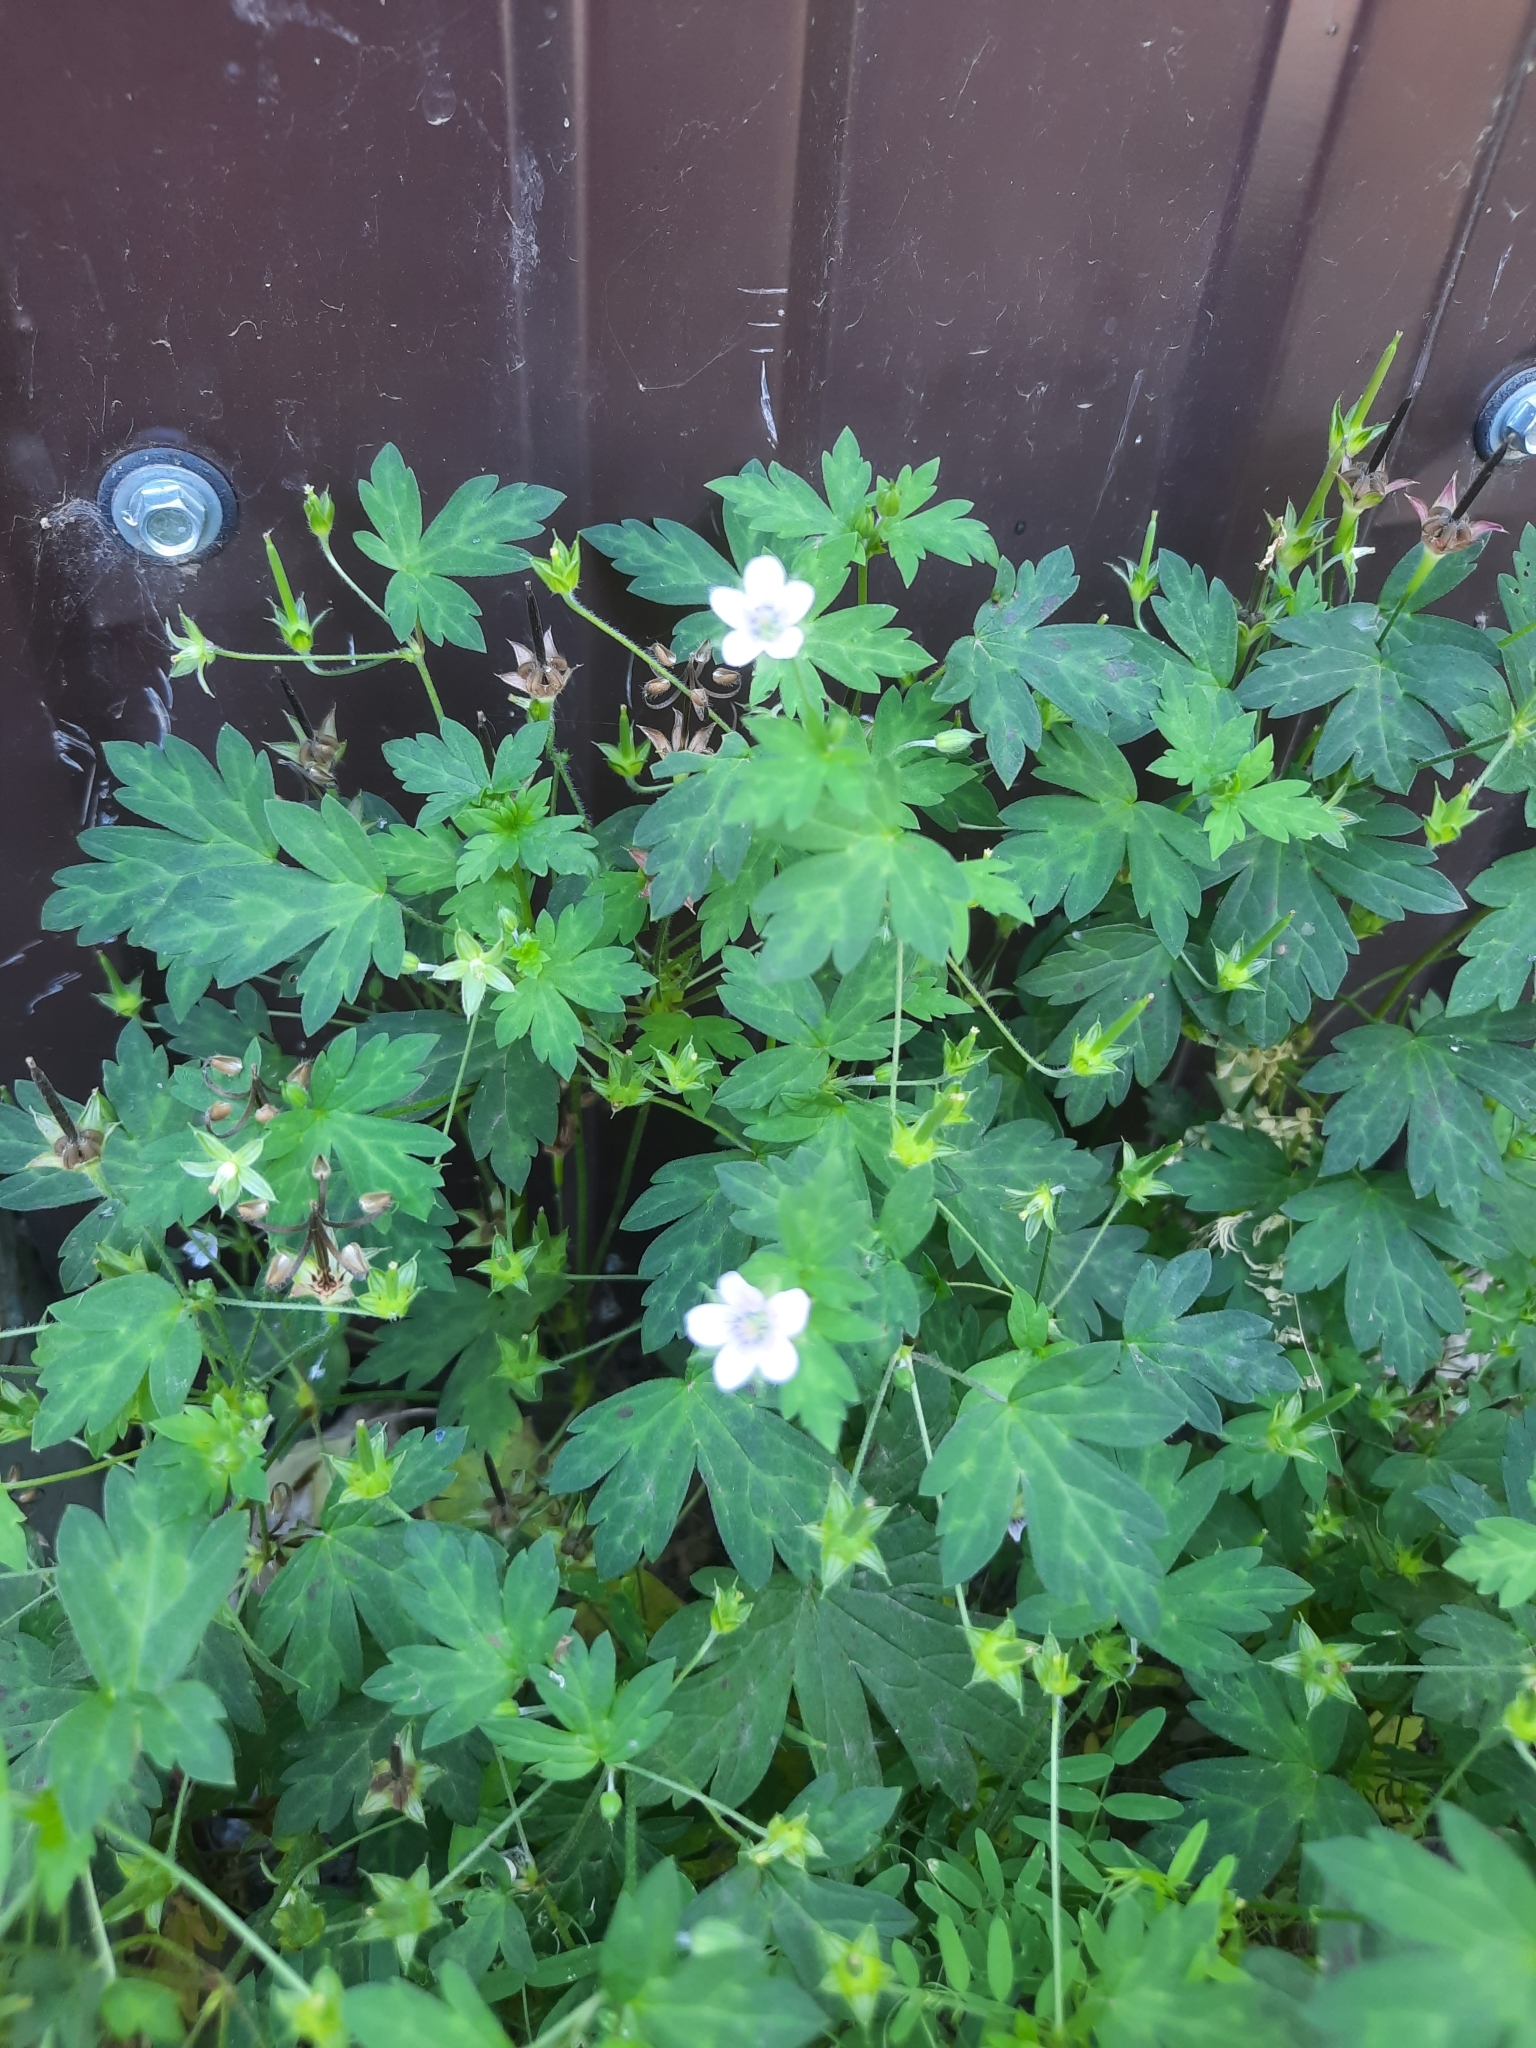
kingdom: Plantae
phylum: Tracheophyta
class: Magnoliopsida
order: Geraniales
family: Geraniaceae
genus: Geranium
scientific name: Geranium sibiricum
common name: Siberian crane's-bill
